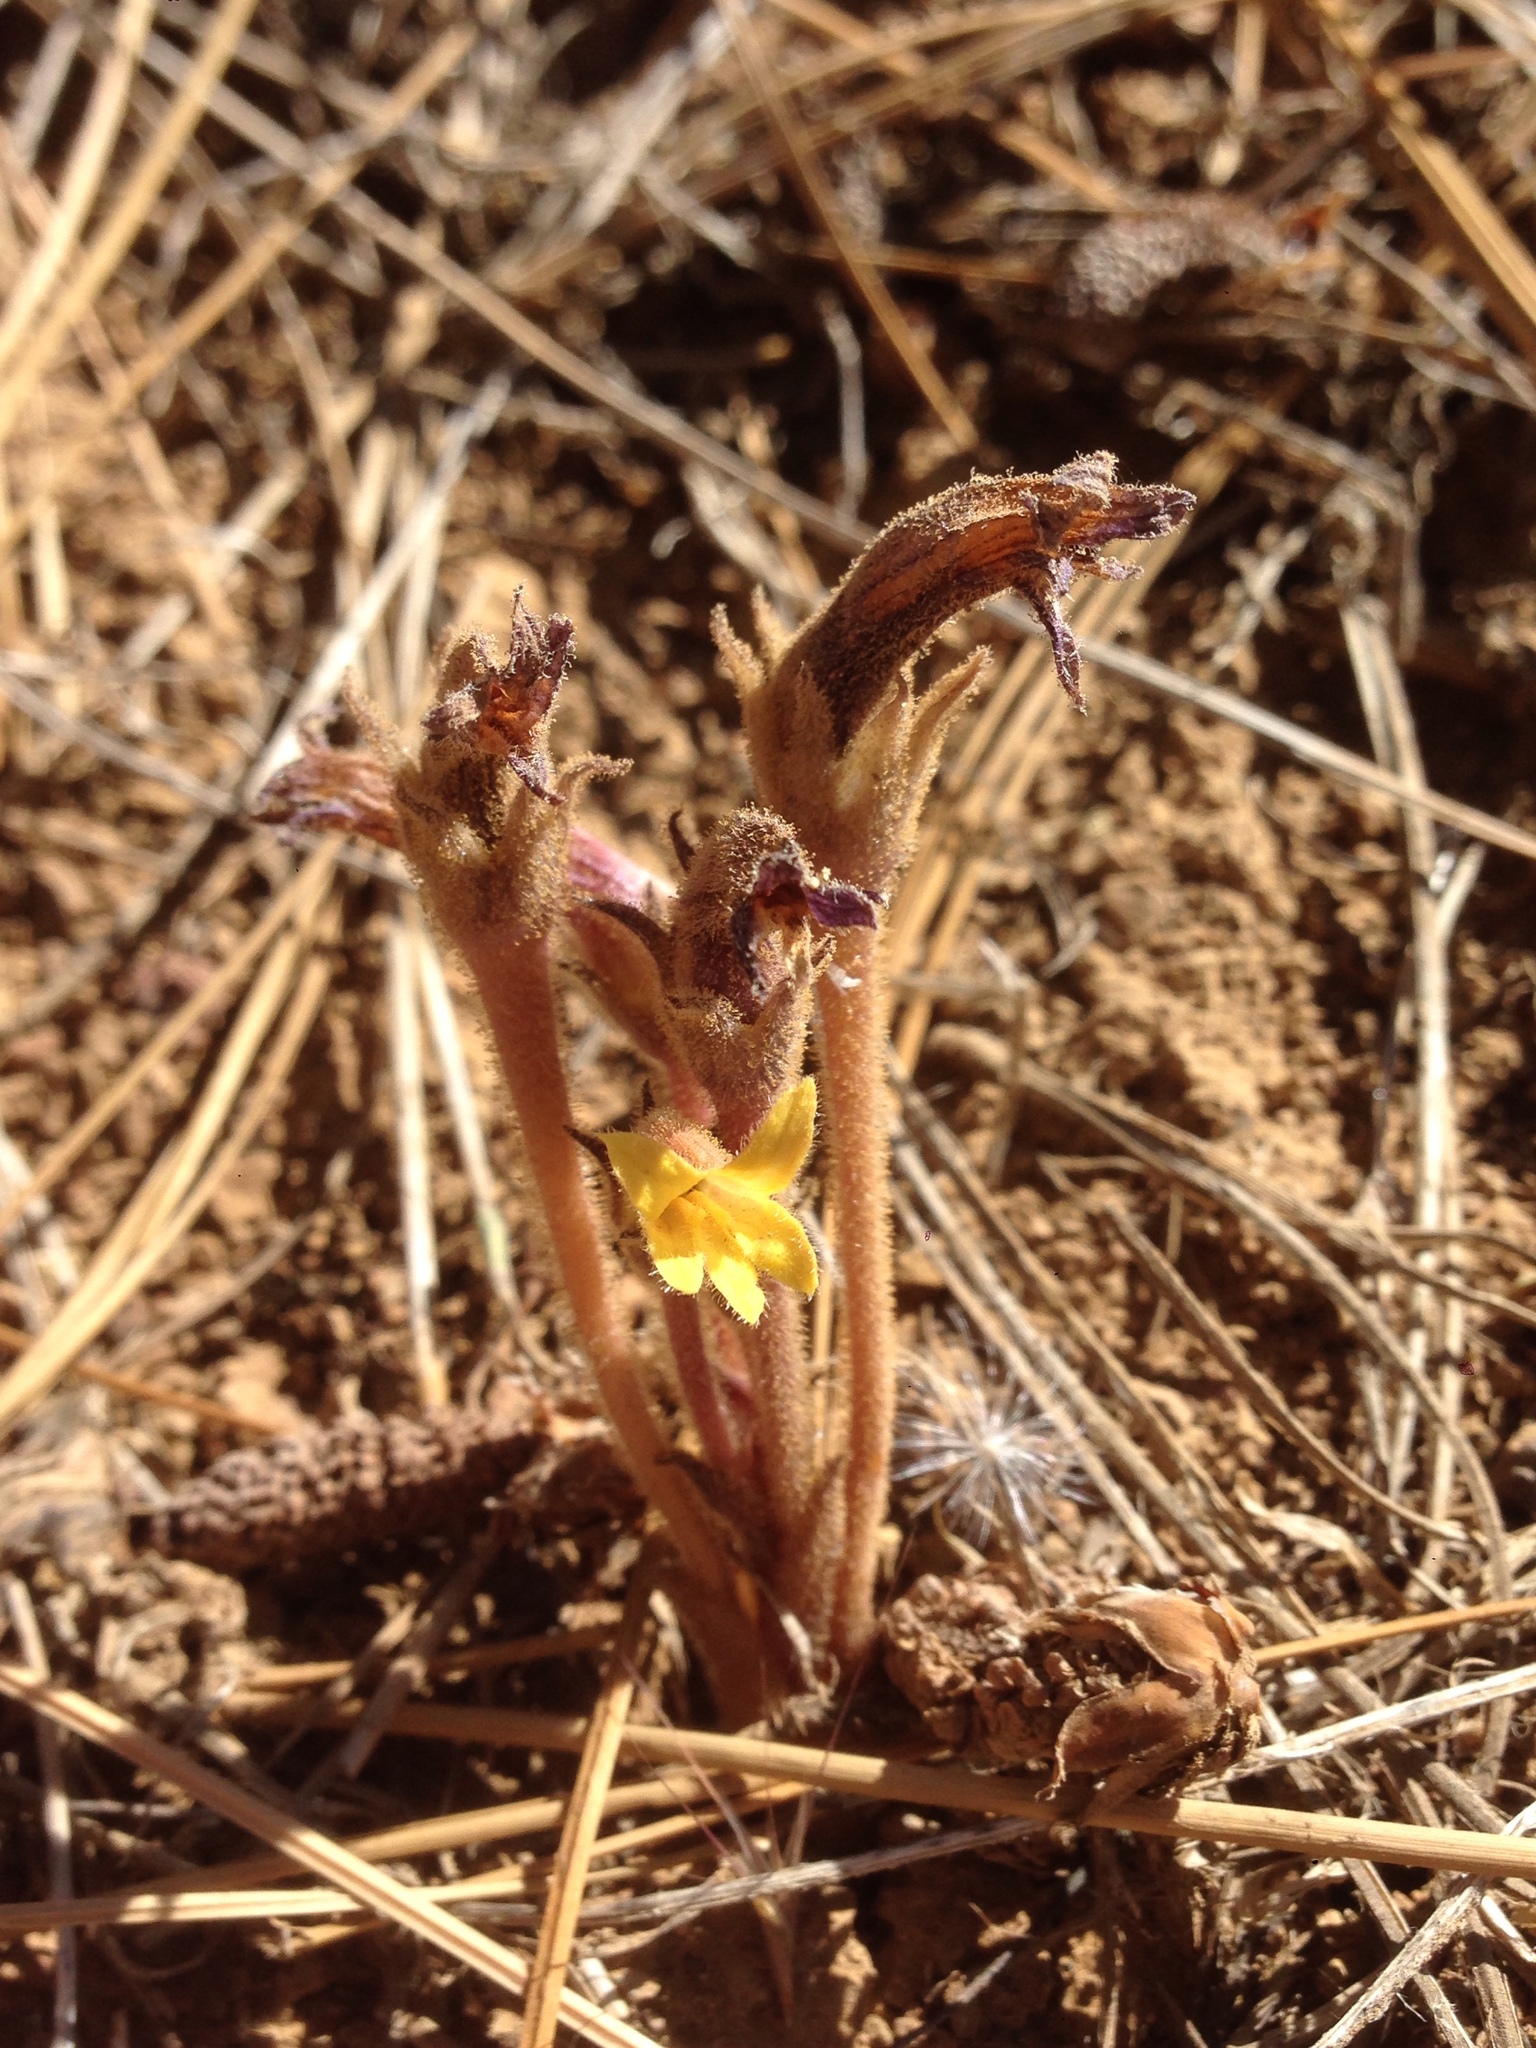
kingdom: Plantae
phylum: Tracheophyta
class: Magnoliopsida
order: Lamiales
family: Orobanchaceae
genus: Aphyllon
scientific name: Aphyllon franciscanum
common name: San francisco broomrape
